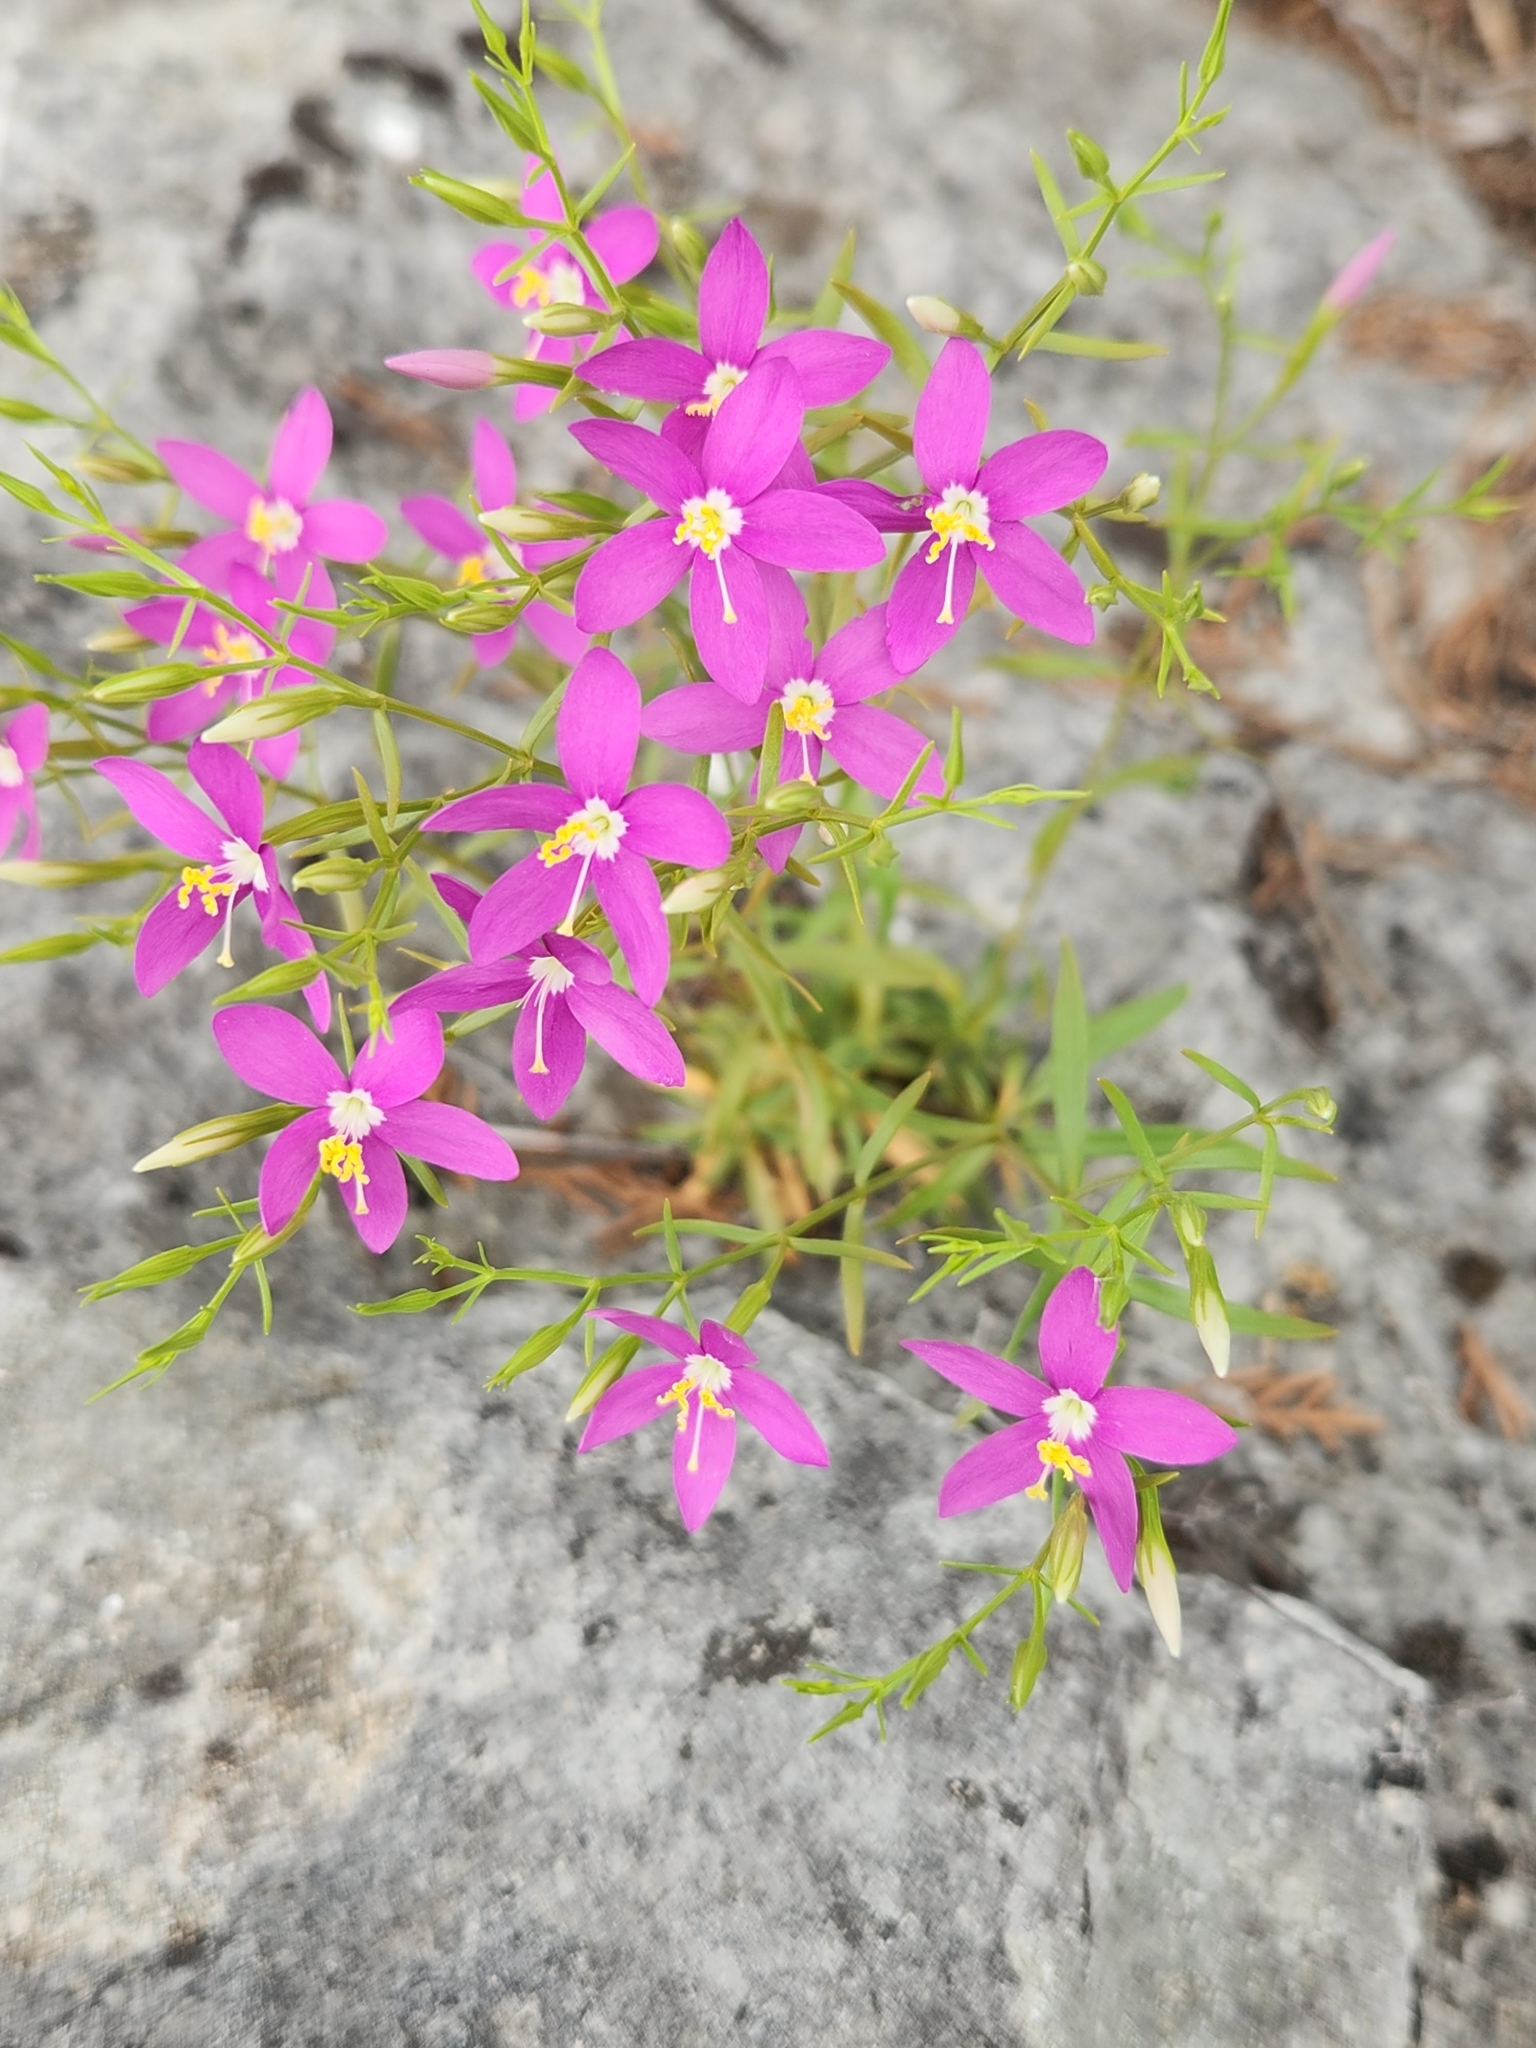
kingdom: Plantae
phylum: Tracheophyta
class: Magnoliopsida
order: Gentianales
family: Gentianaceae
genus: Zeltnera
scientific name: Zeltnera calycosa
